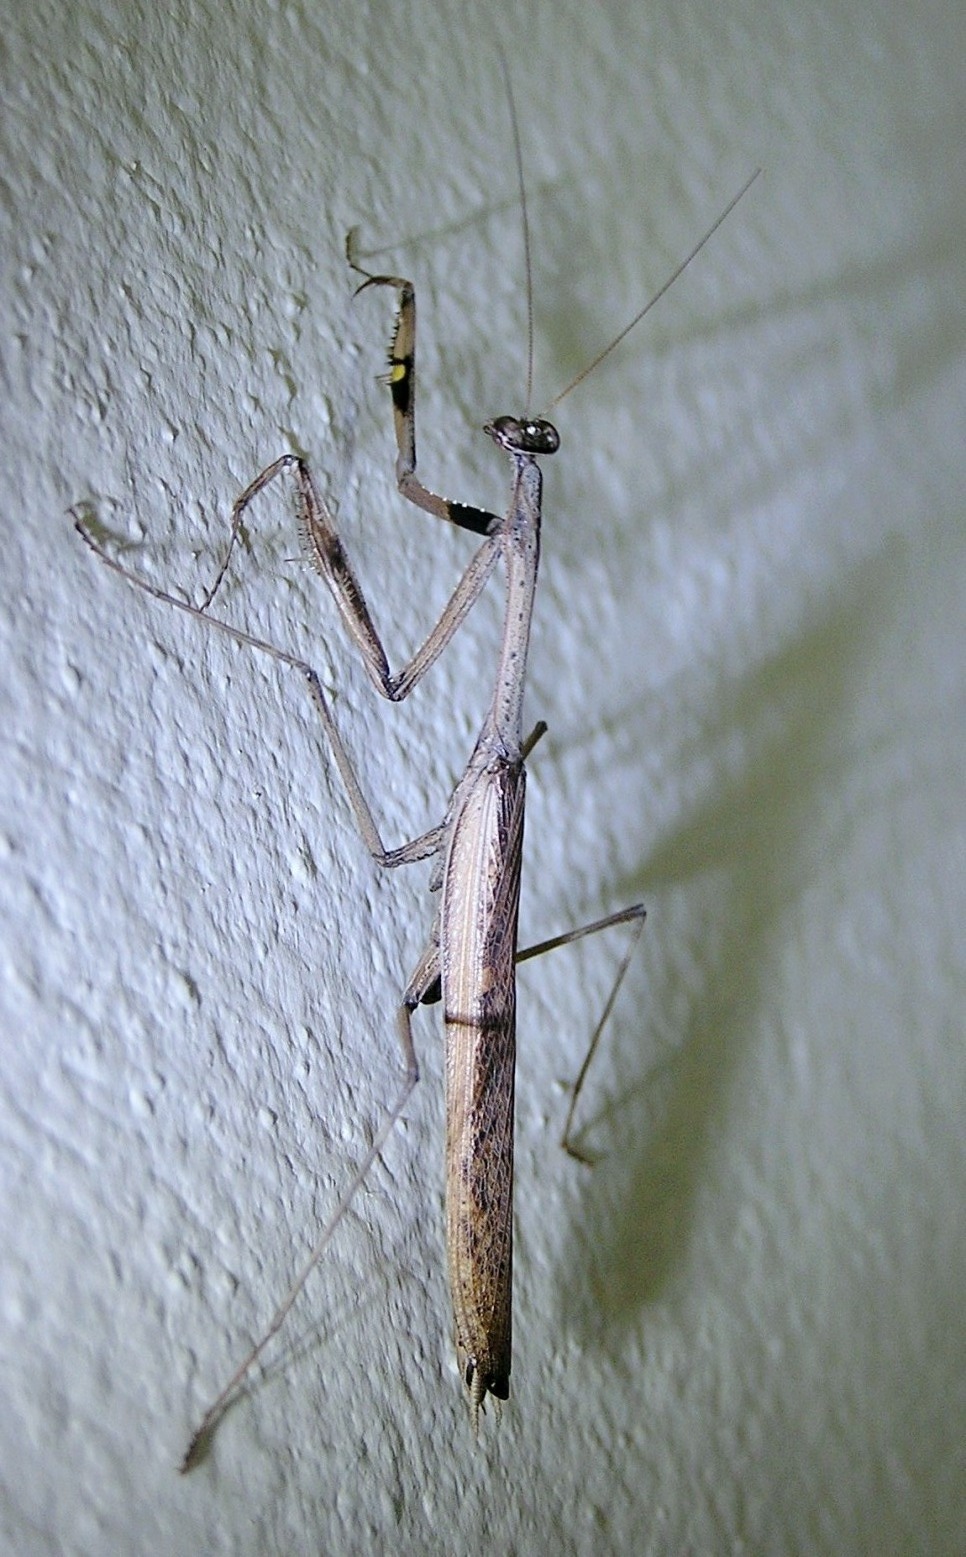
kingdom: Animalia
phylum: Arthropoda
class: Insecta
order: Mantodea
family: Mantidae
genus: Statilia
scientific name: Statilia maculata
